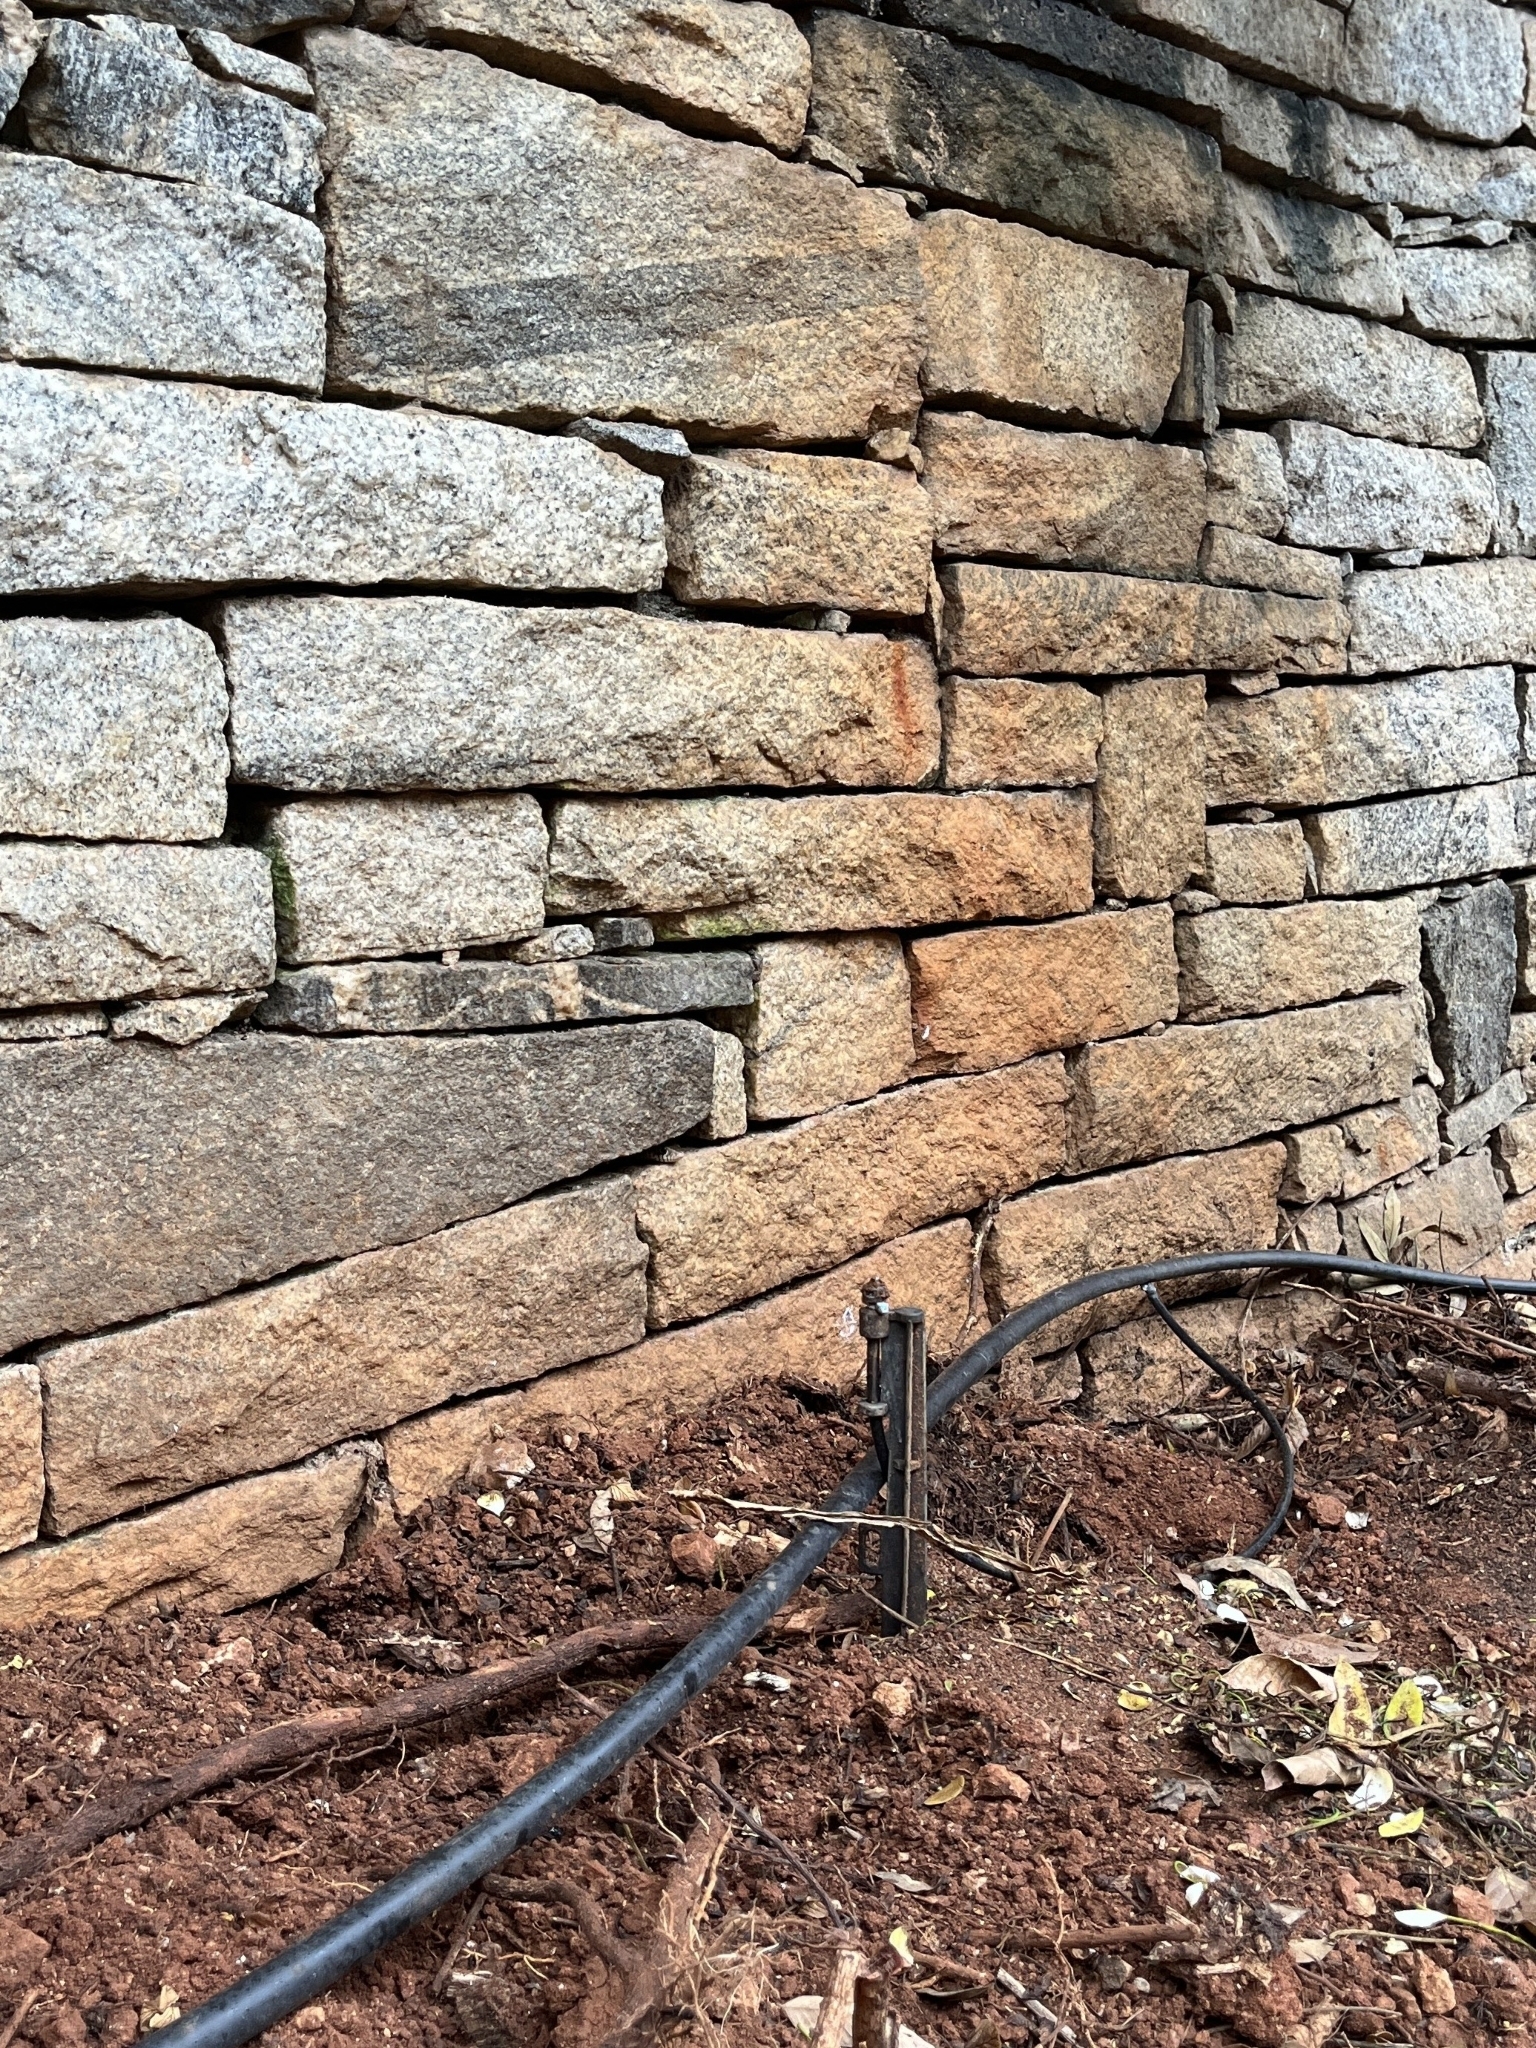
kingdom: Animalia
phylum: Chordata
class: Squamata
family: Colubridae
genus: Ptyas
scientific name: Ptyas mucosa
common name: Oriental ratsnake
